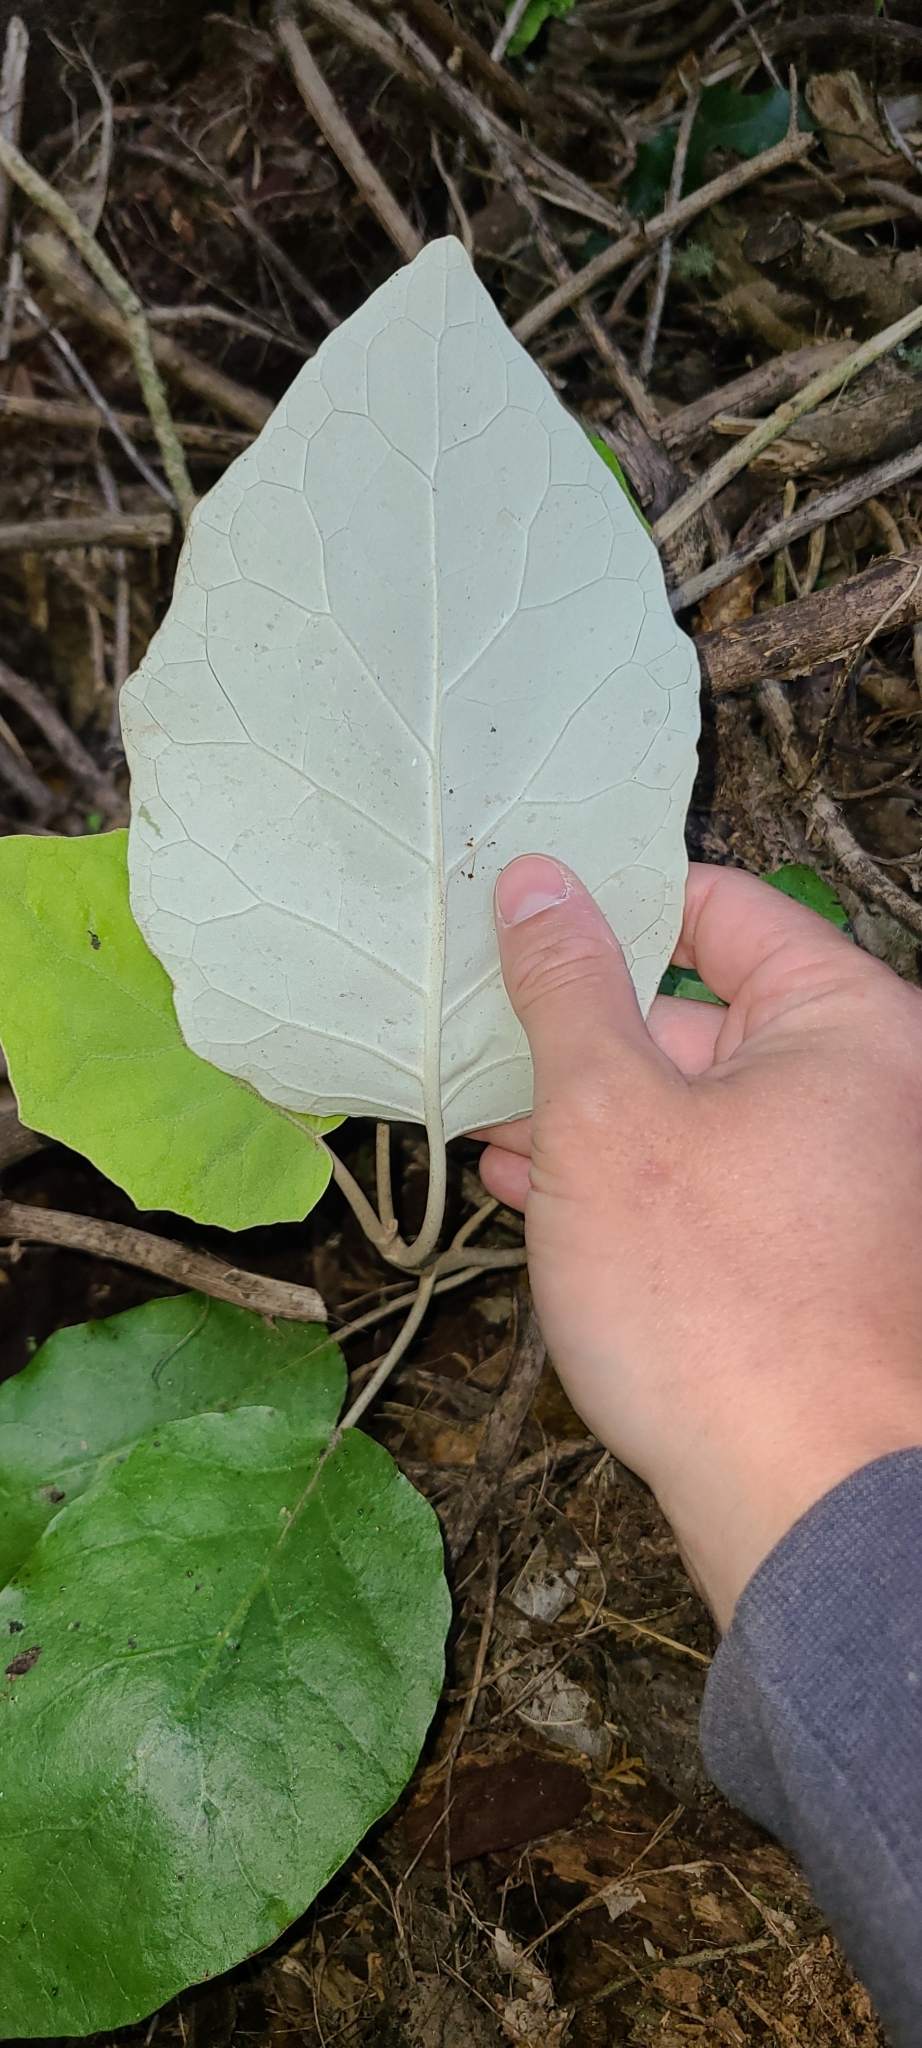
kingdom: Plantae
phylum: Tracheophyta
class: Magnoliopsida
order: Asterales
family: Asteraceae
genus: Brachyglottis
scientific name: Brachyglottis repanda
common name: Hedge ragwort
